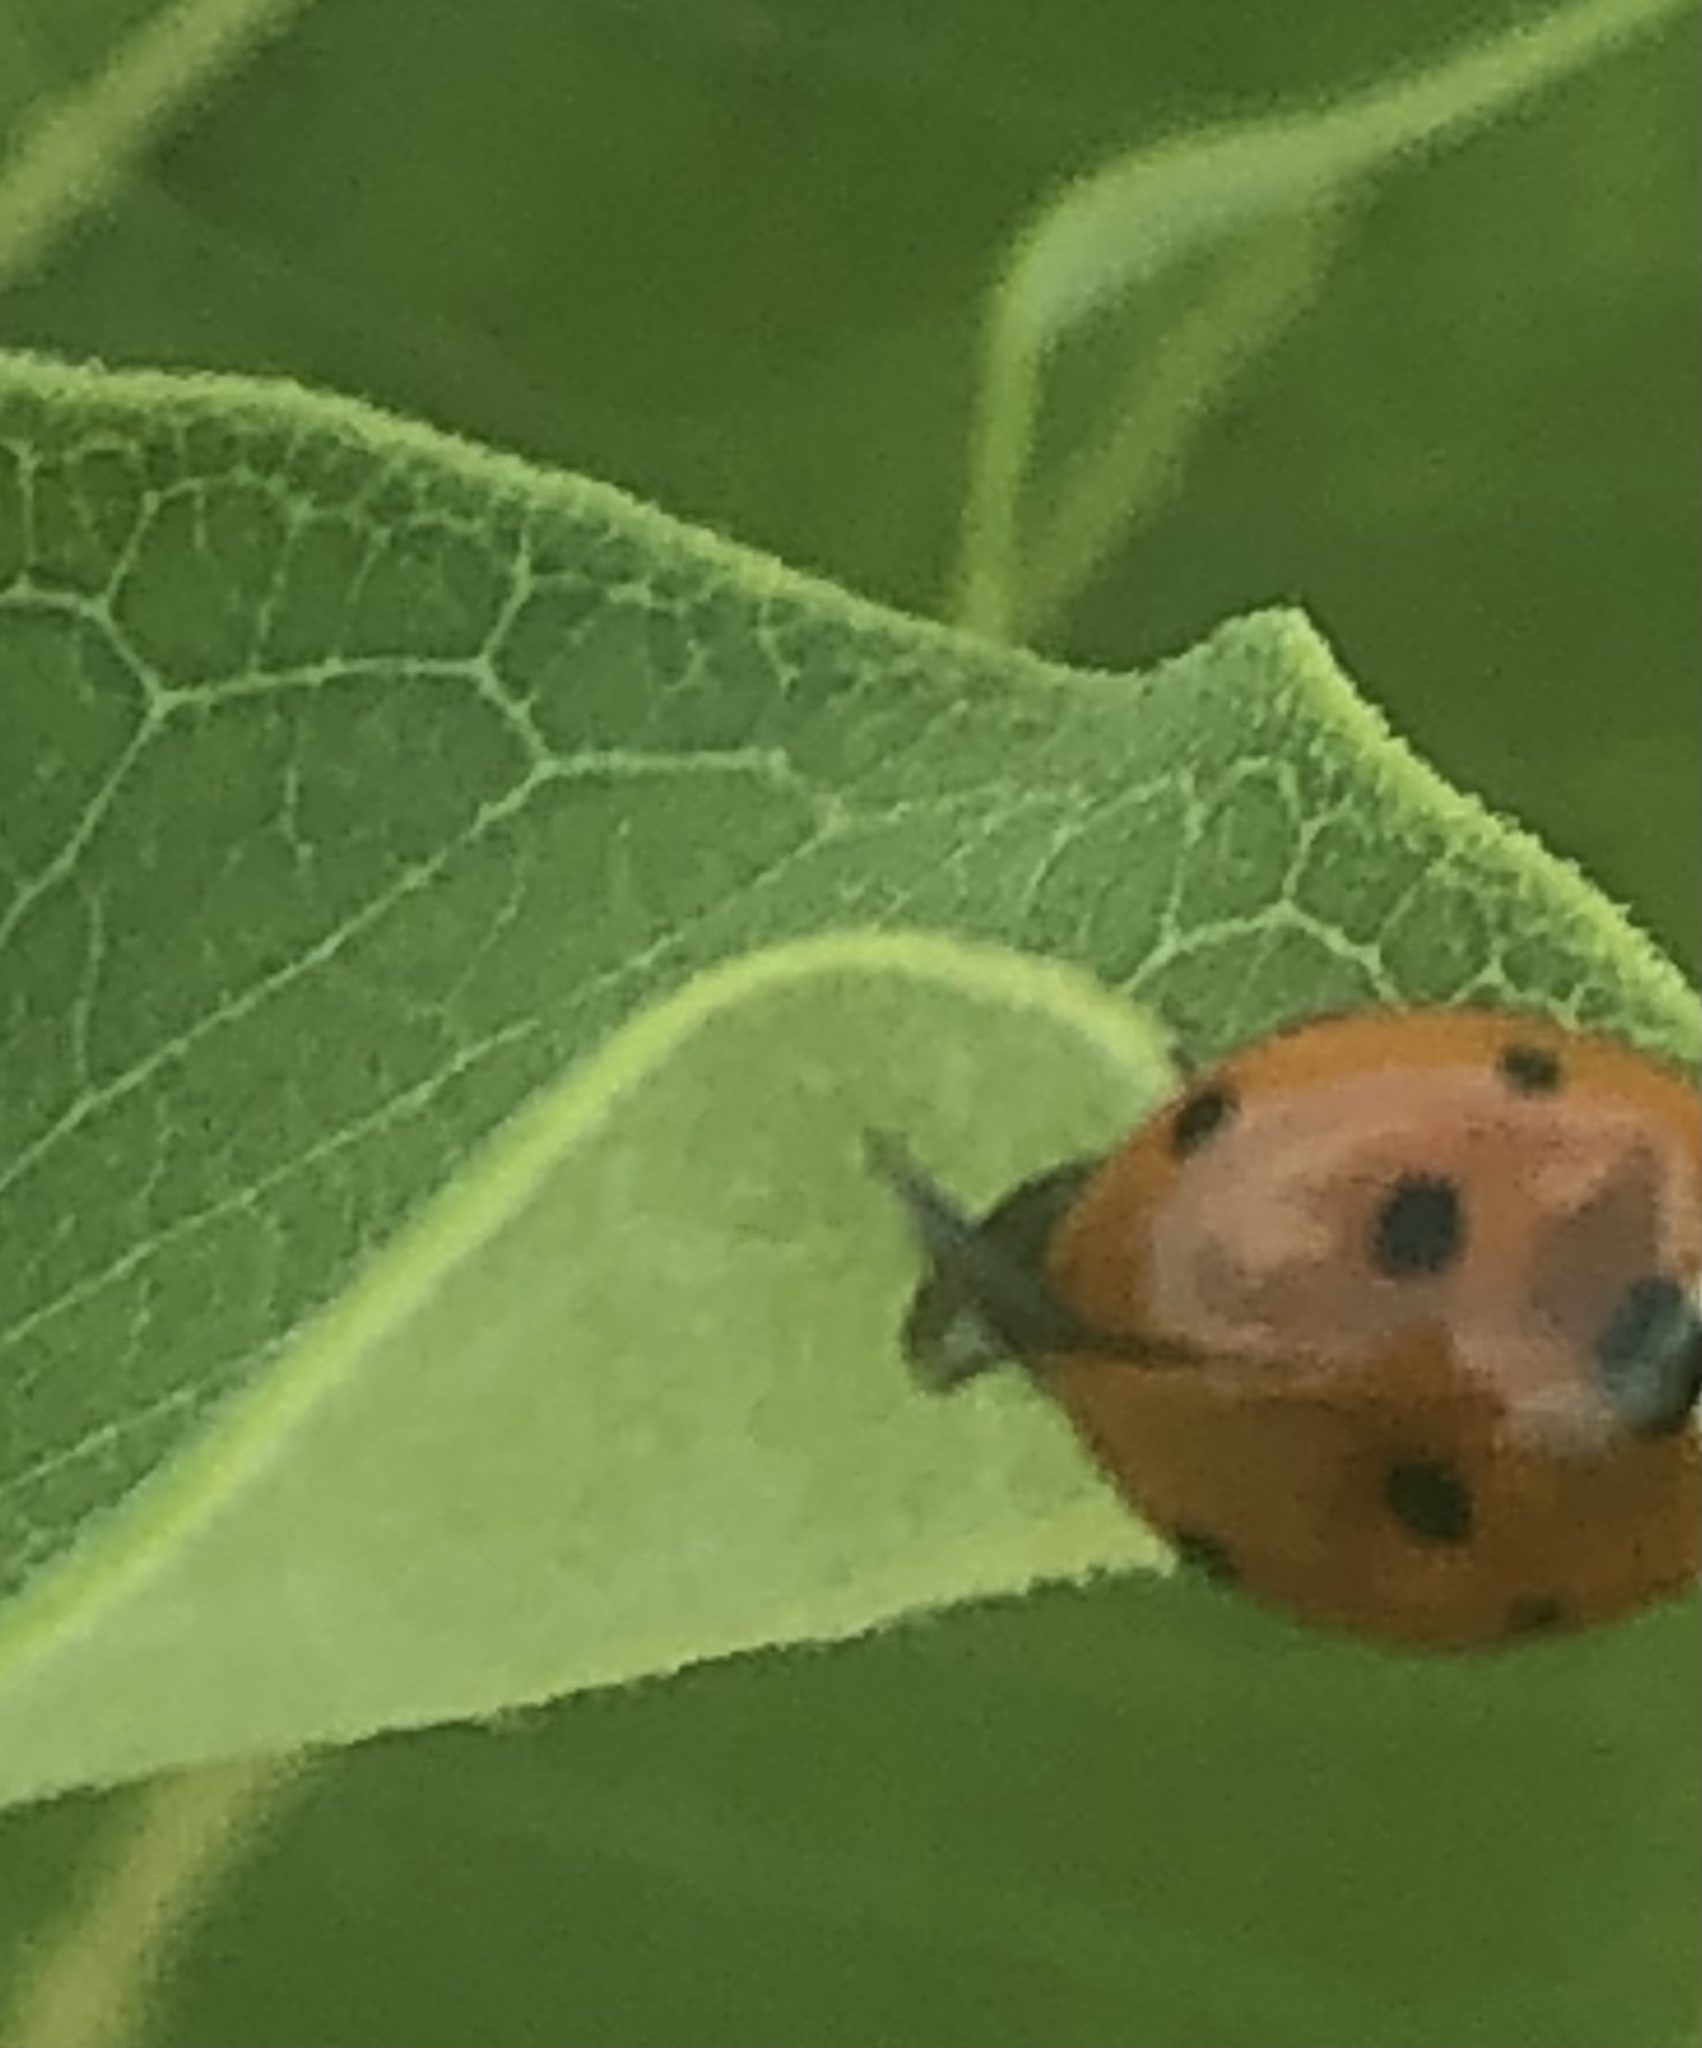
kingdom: Animalia
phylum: Arthropoda
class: Insecta
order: Coleoptera
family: Coccinellidae
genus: Coccinella
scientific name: Coccinella septempunctata
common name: Sevenspotted lady beetle
